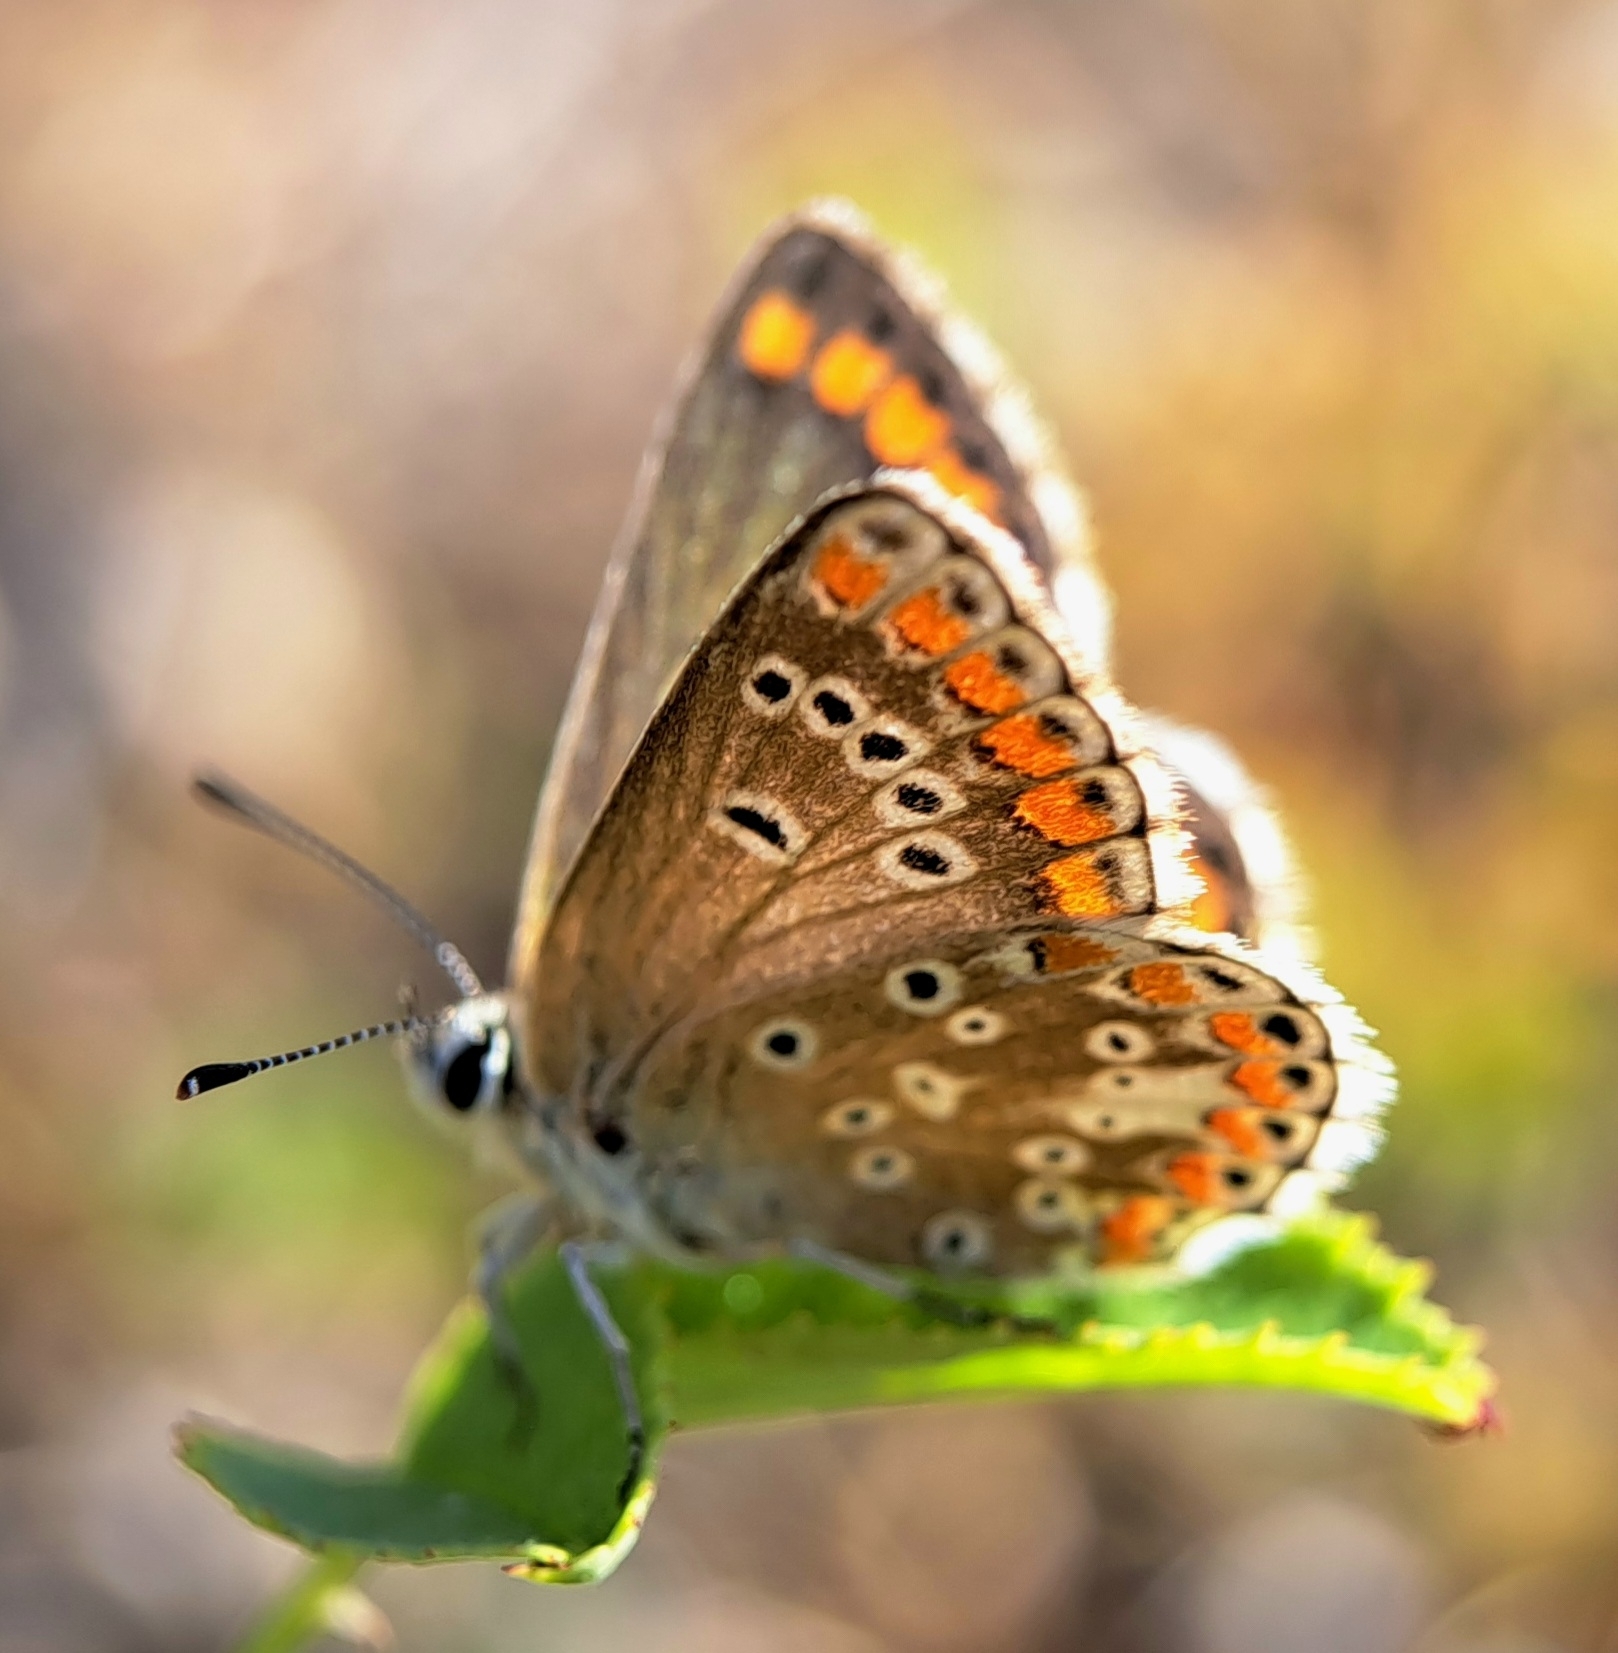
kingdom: Animalia
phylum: Arthropoda
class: Insecta
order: Lepidoptera
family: Lycaenidae
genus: Aricia
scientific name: Aricia agestis
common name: Brown argus
